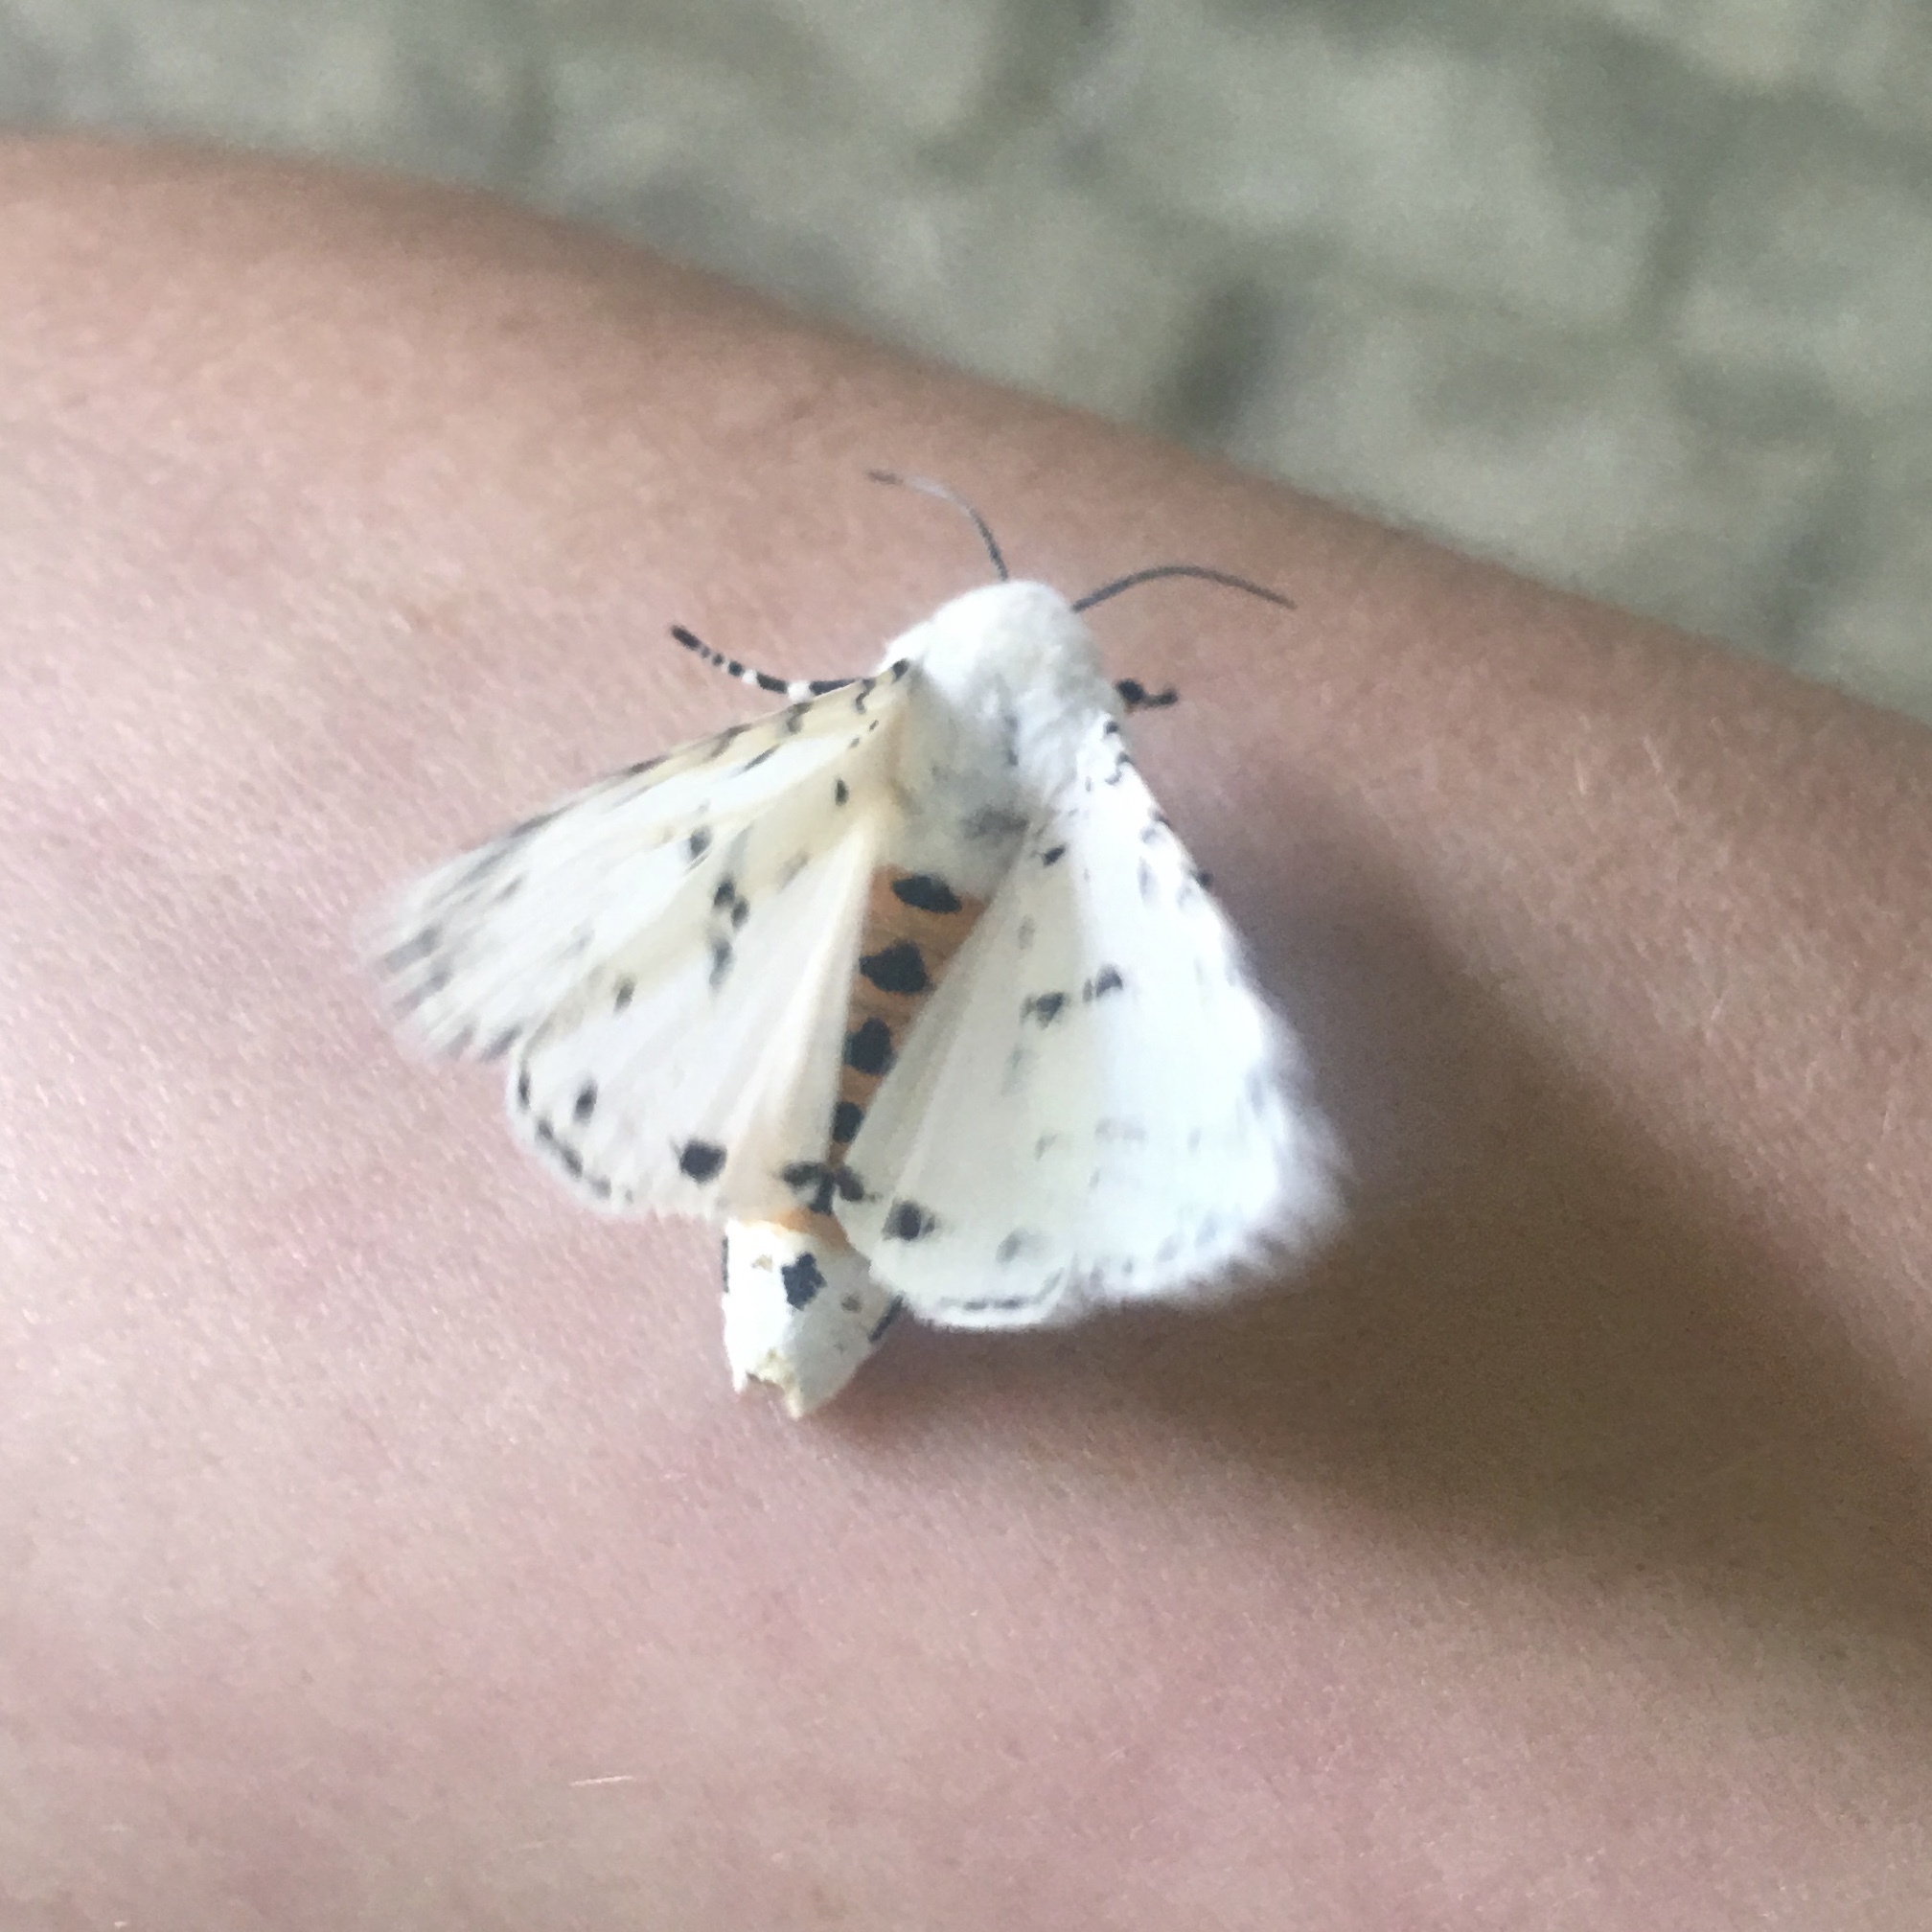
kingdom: Animalia
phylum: Arthropoda
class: Insecta
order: Lepidoptera
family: Erebidae
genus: Estigmene
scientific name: Estigmene acrea
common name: Salt marsh moth
